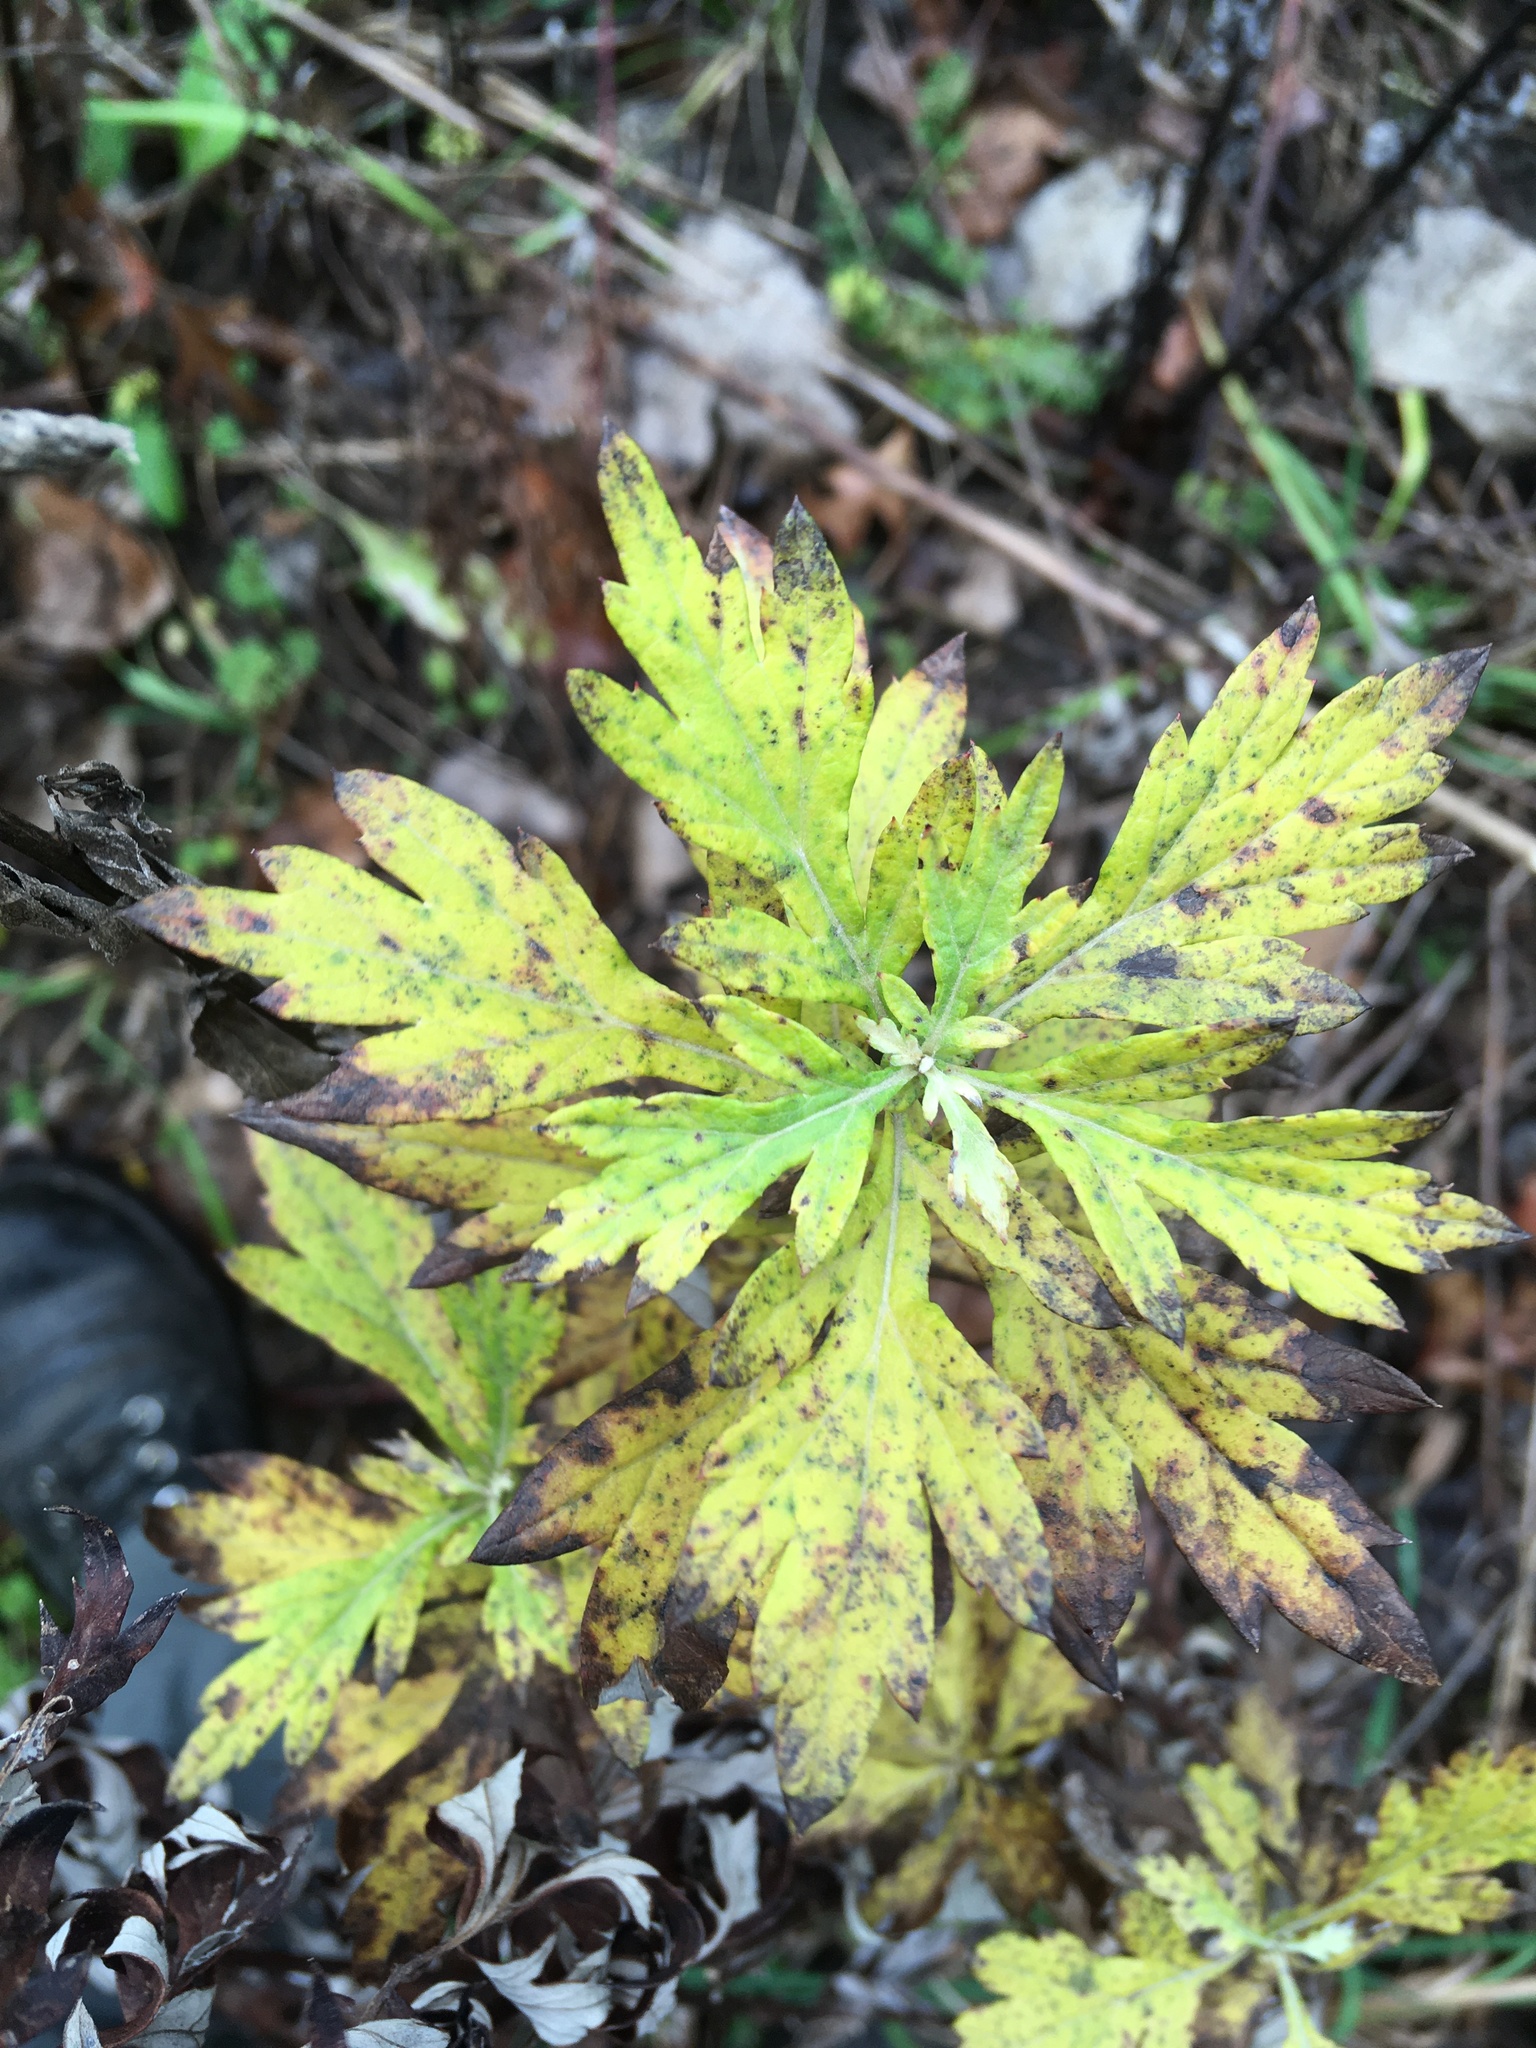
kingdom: Plantae
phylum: Tracheophyta
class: Magnoliopsida
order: Asterales
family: Asteraceae
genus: Artemisia
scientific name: Artemisia vulgaris
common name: Mugwort
